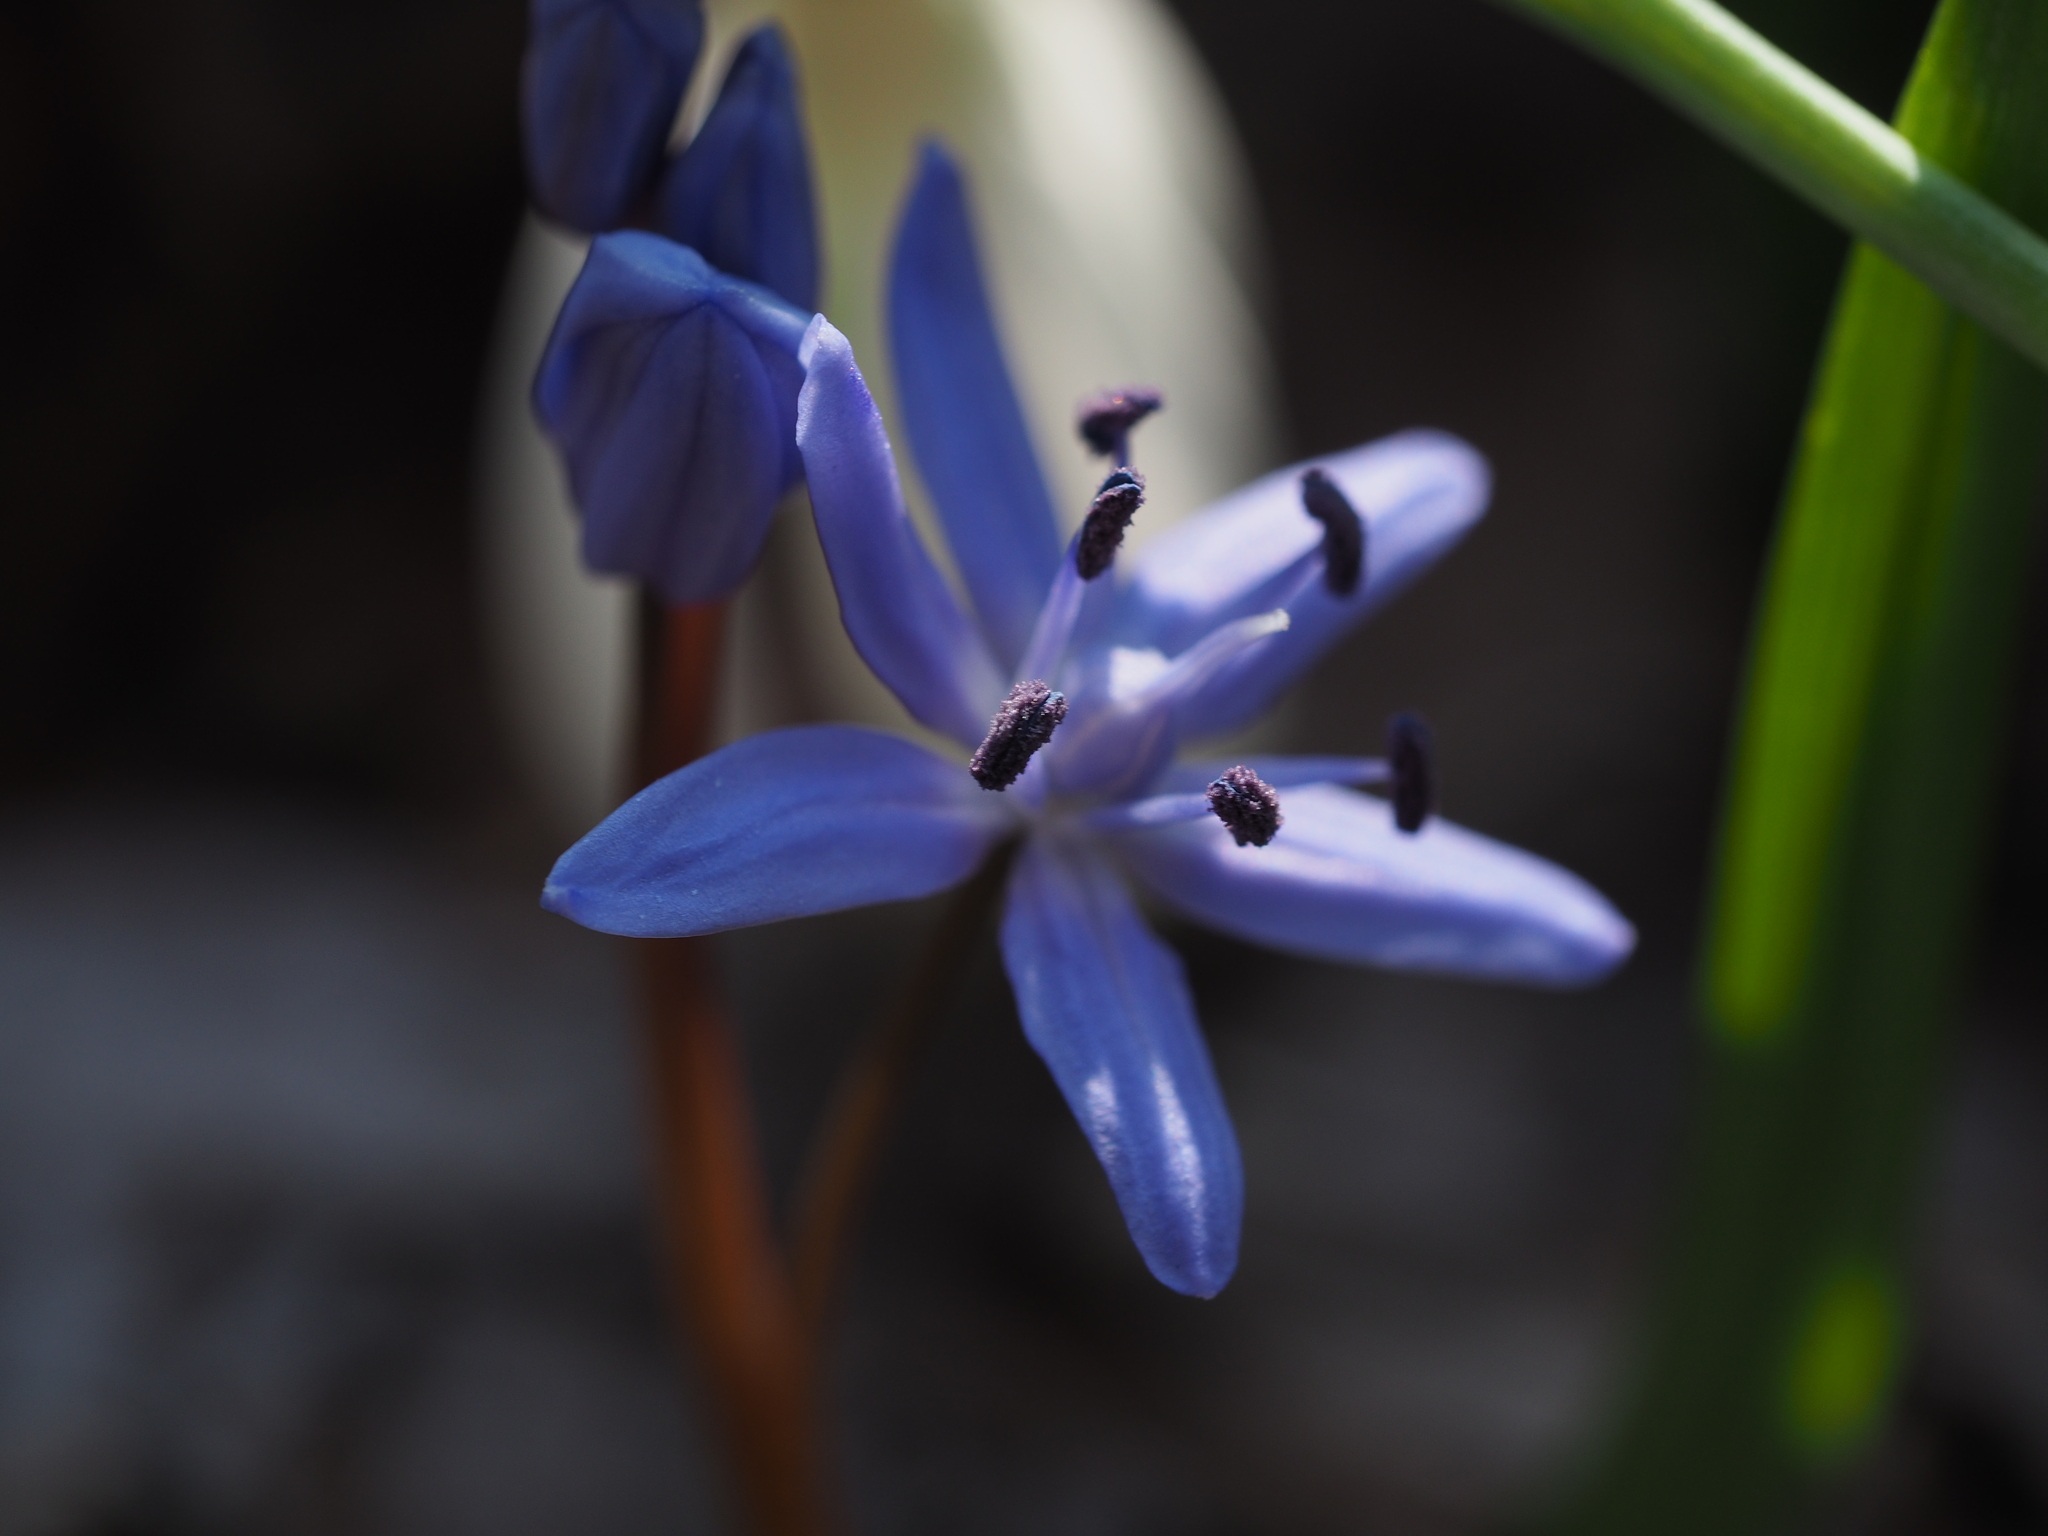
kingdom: Plantae
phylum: Tracheophyta
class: Liliopsida
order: Asparagales
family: Asparagaceae
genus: Scilla
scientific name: Scilla bifolia
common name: Alpine squill
